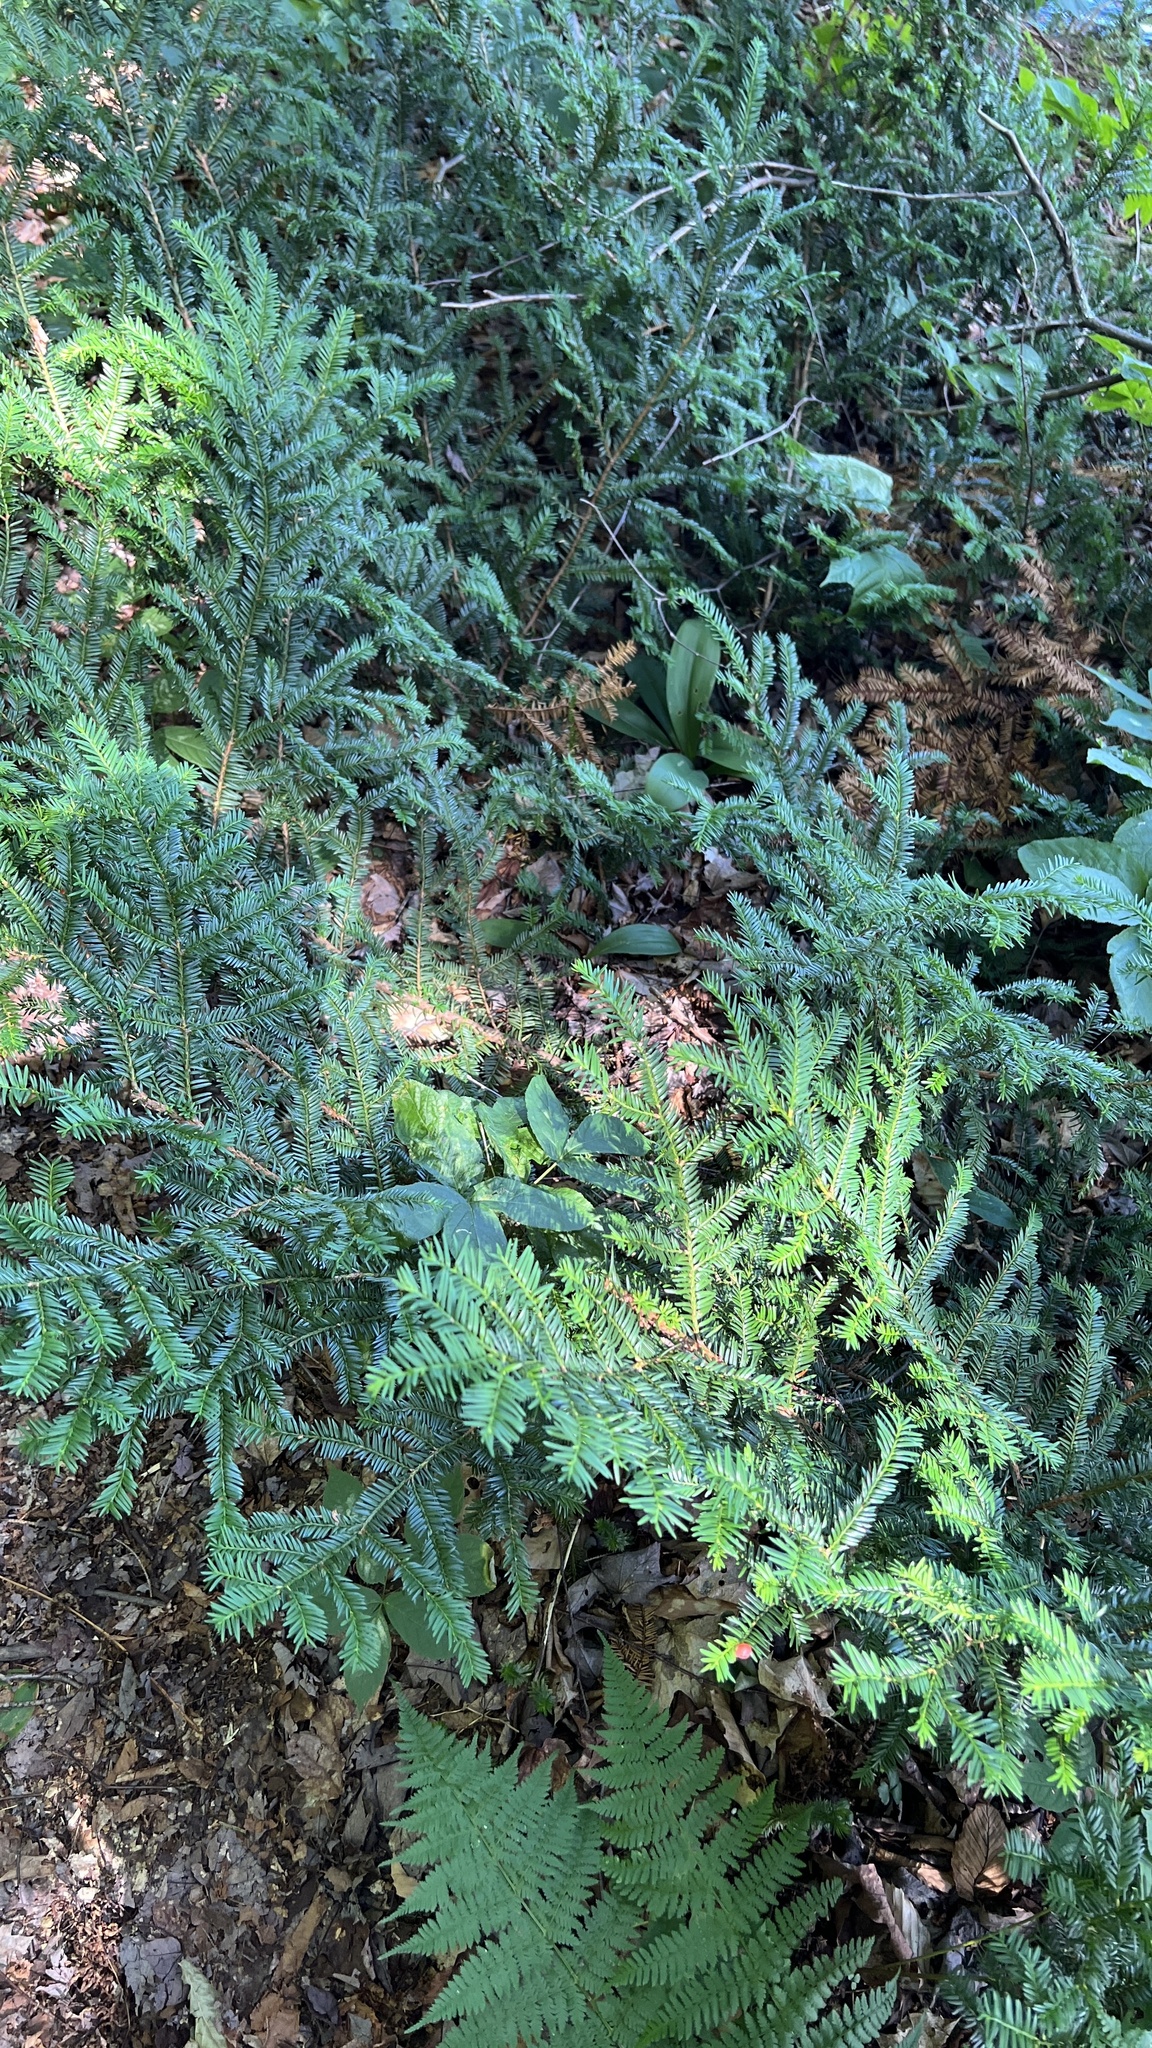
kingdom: Plantae
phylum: Tracheophyta
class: Pinopsida
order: Pinales
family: Taxaceae
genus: Taxus
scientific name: Taxus canadensis
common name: American yew
